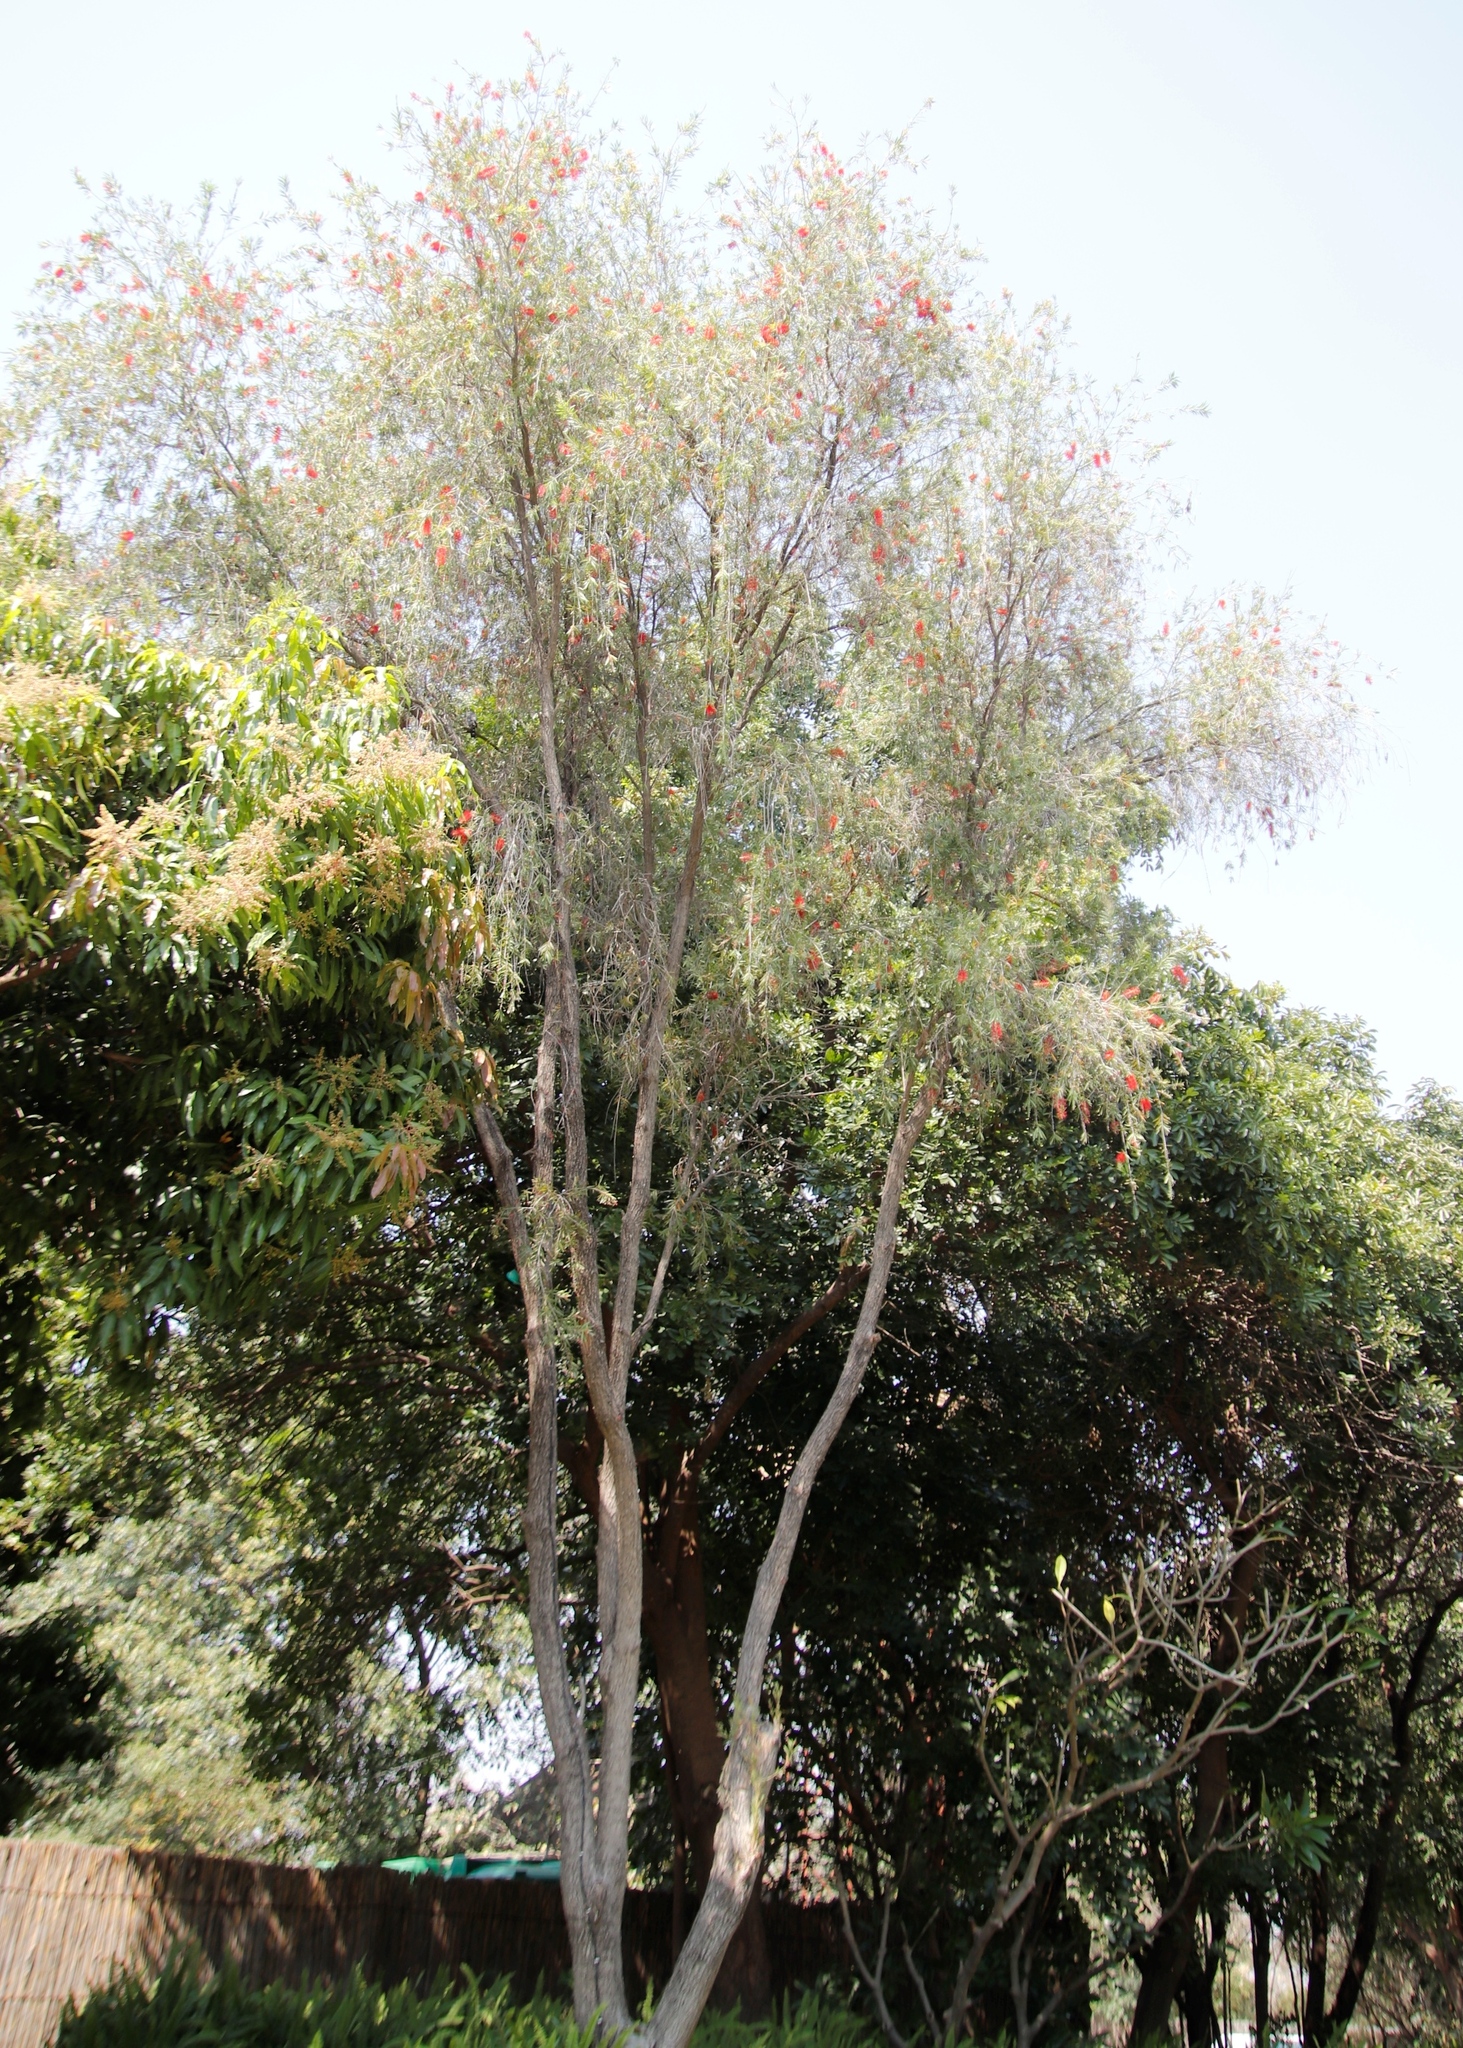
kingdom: Plantae
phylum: Tracheophyta
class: Magnoliopsida
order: Myrtales
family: Myrtaceae
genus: Callistemon
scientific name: Callistemon viminalis
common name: Drooping bottlebrush
